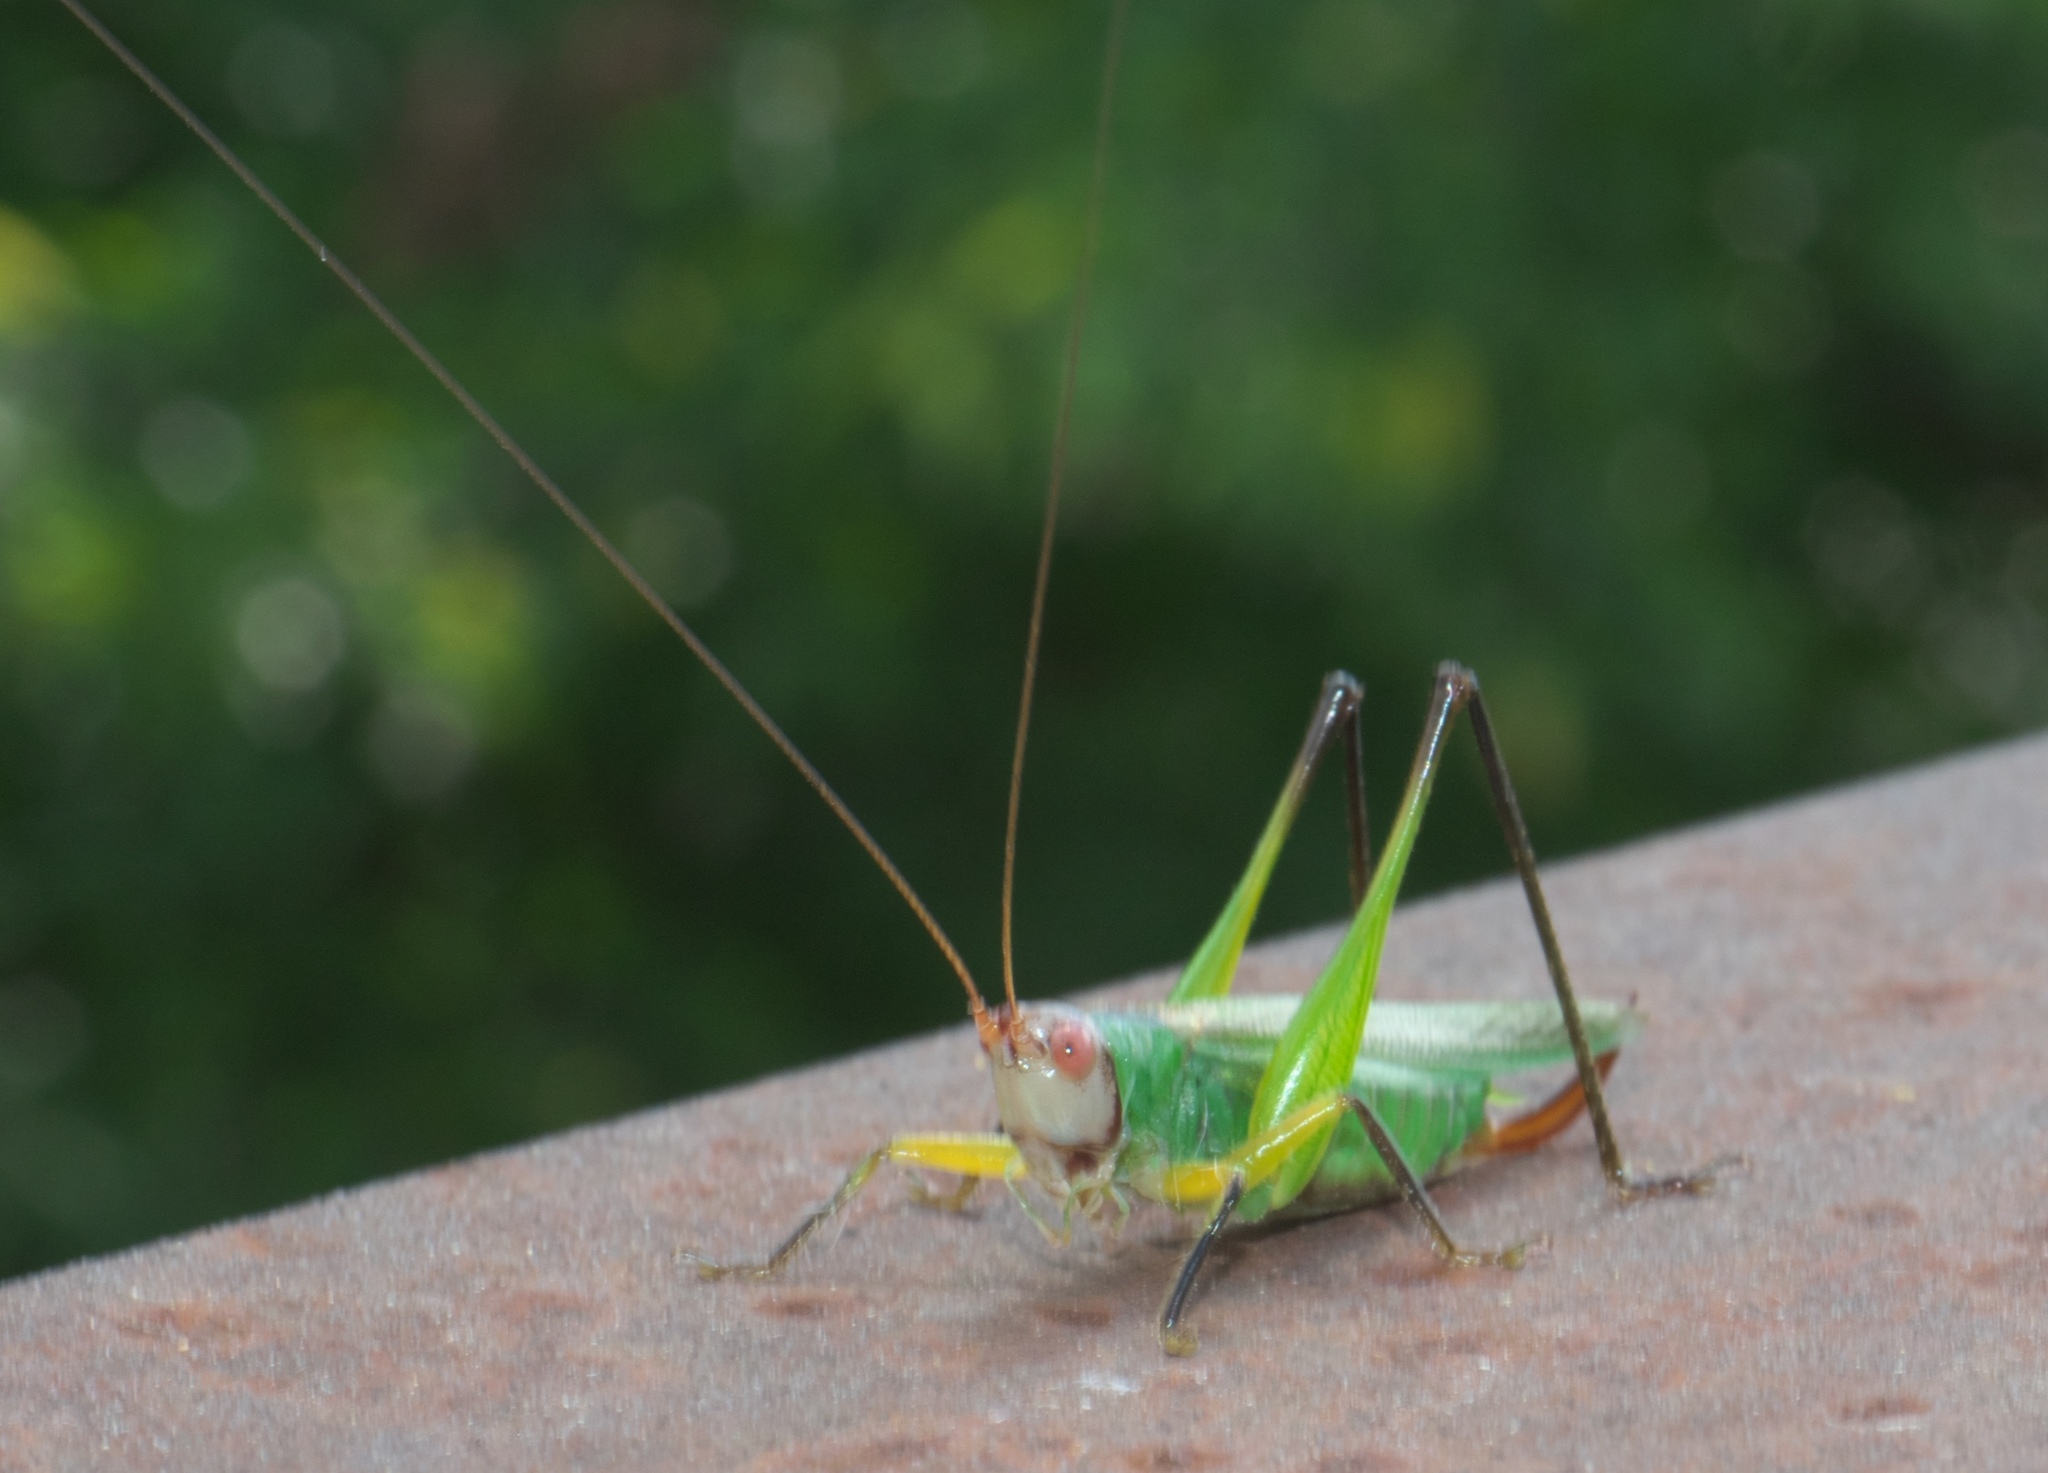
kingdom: Animalia
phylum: Arthropoda
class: Insecta
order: Orthoptera
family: Tettigoniidae
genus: Orchelimum
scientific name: Orchelimum nigripes
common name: Black-legged meadow katydid
